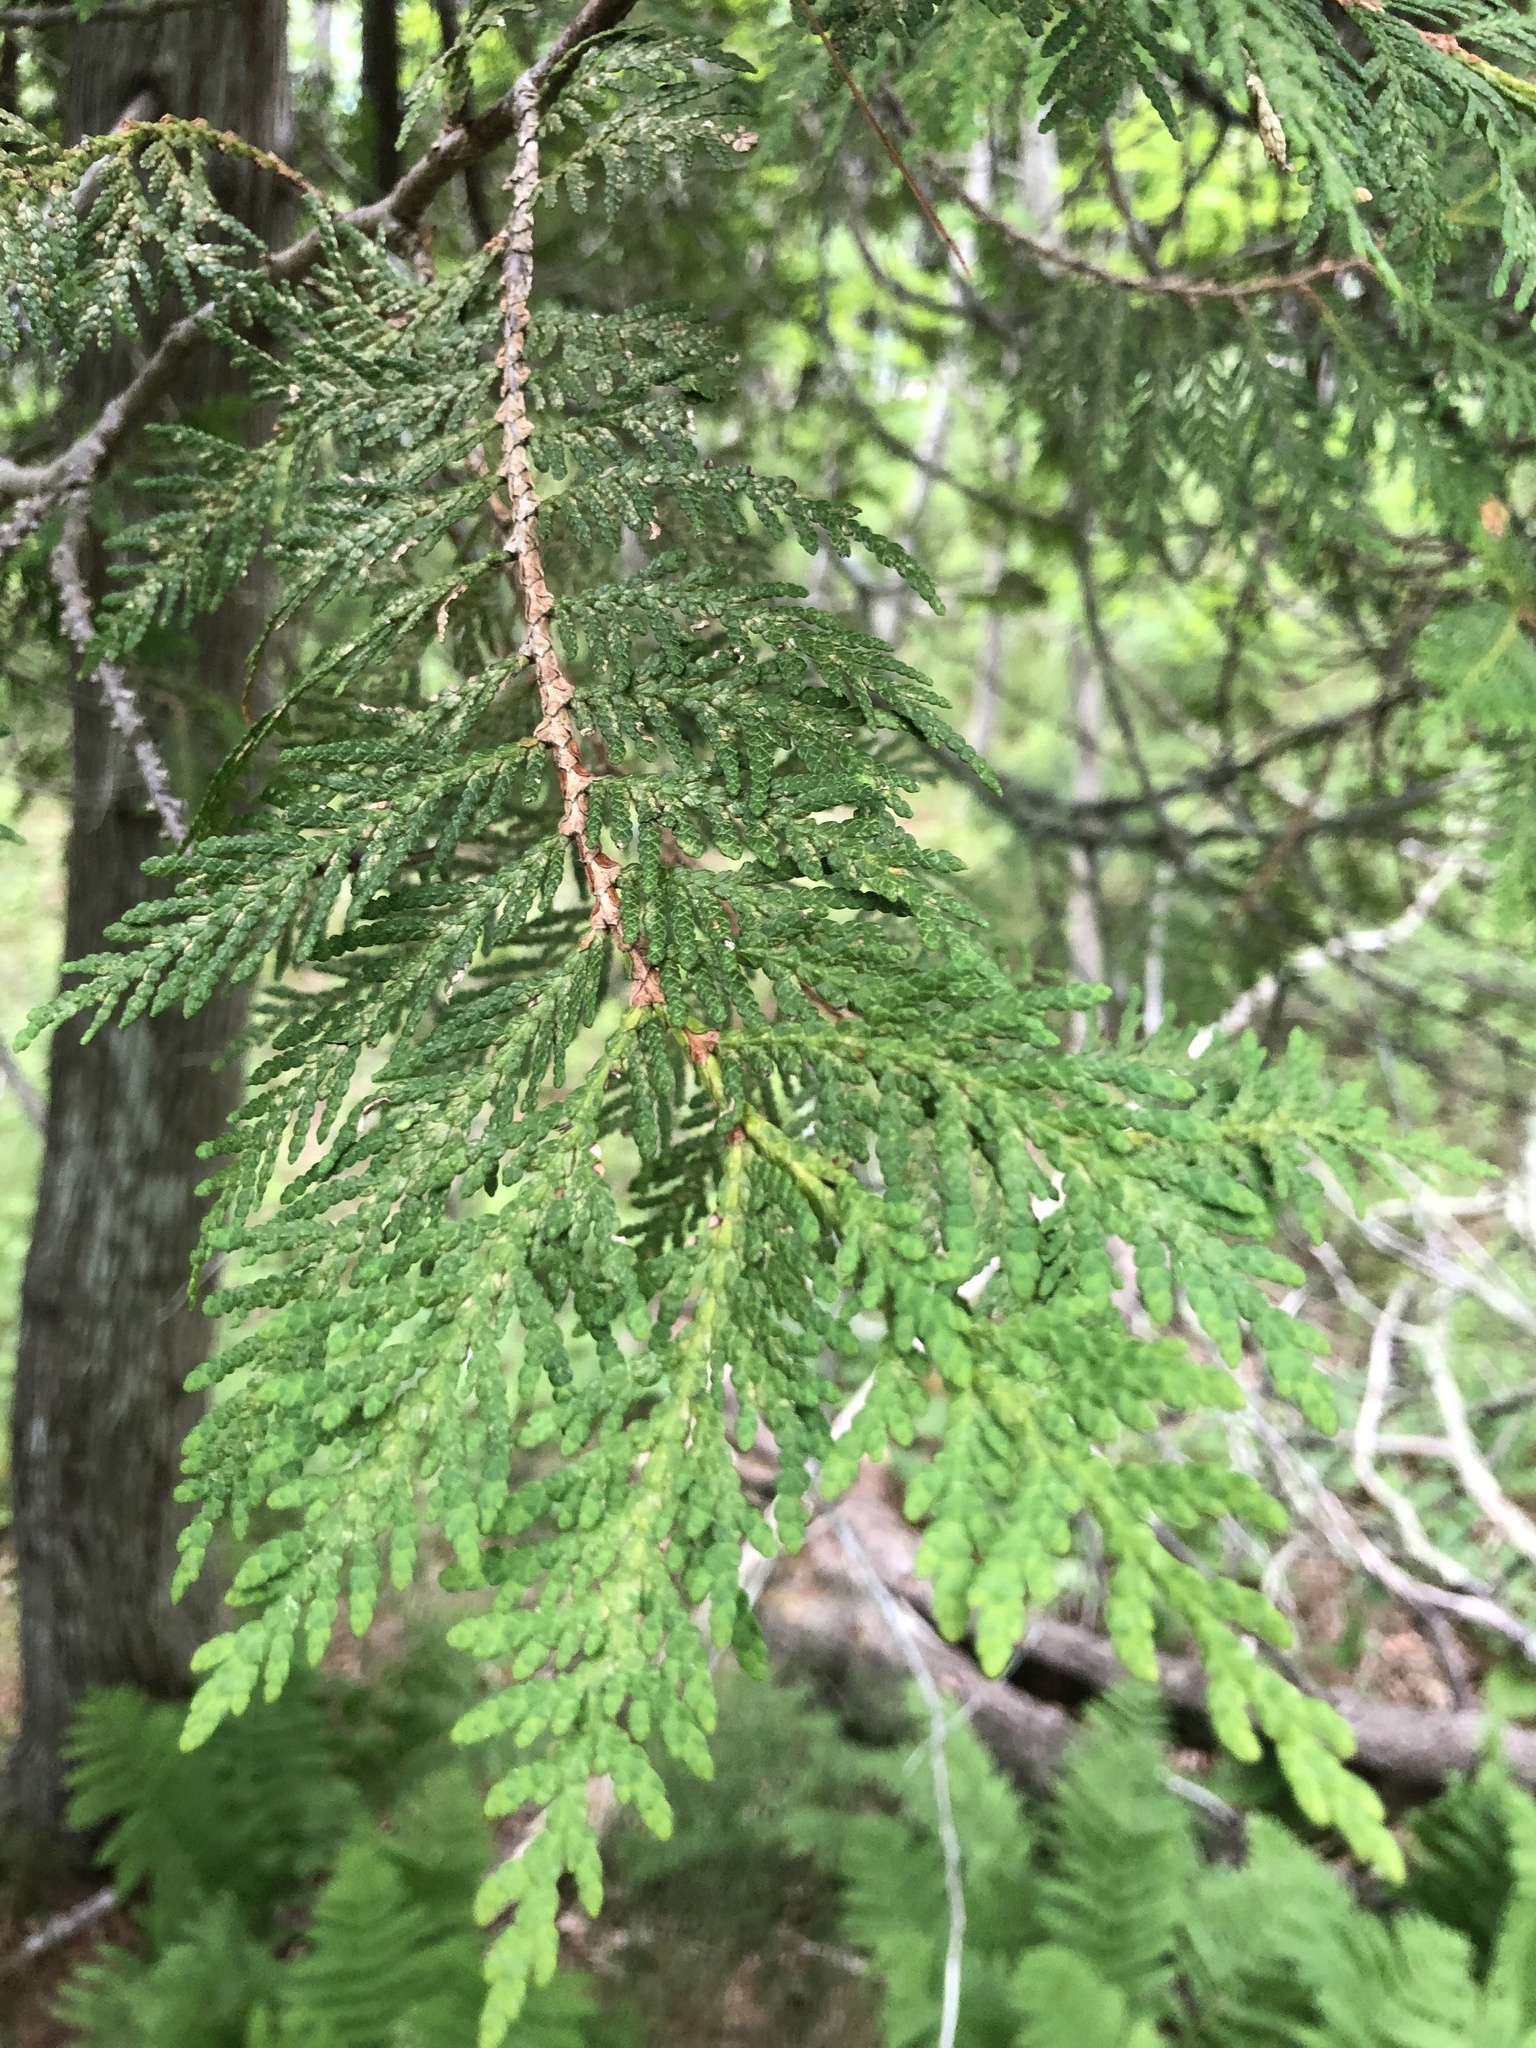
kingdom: Plantae
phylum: Tracheophyta
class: Pinopsida
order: Pinales
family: Cupressaceae
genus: Thuja
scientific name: Thuja occidentalis
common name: Northern white-cedar
